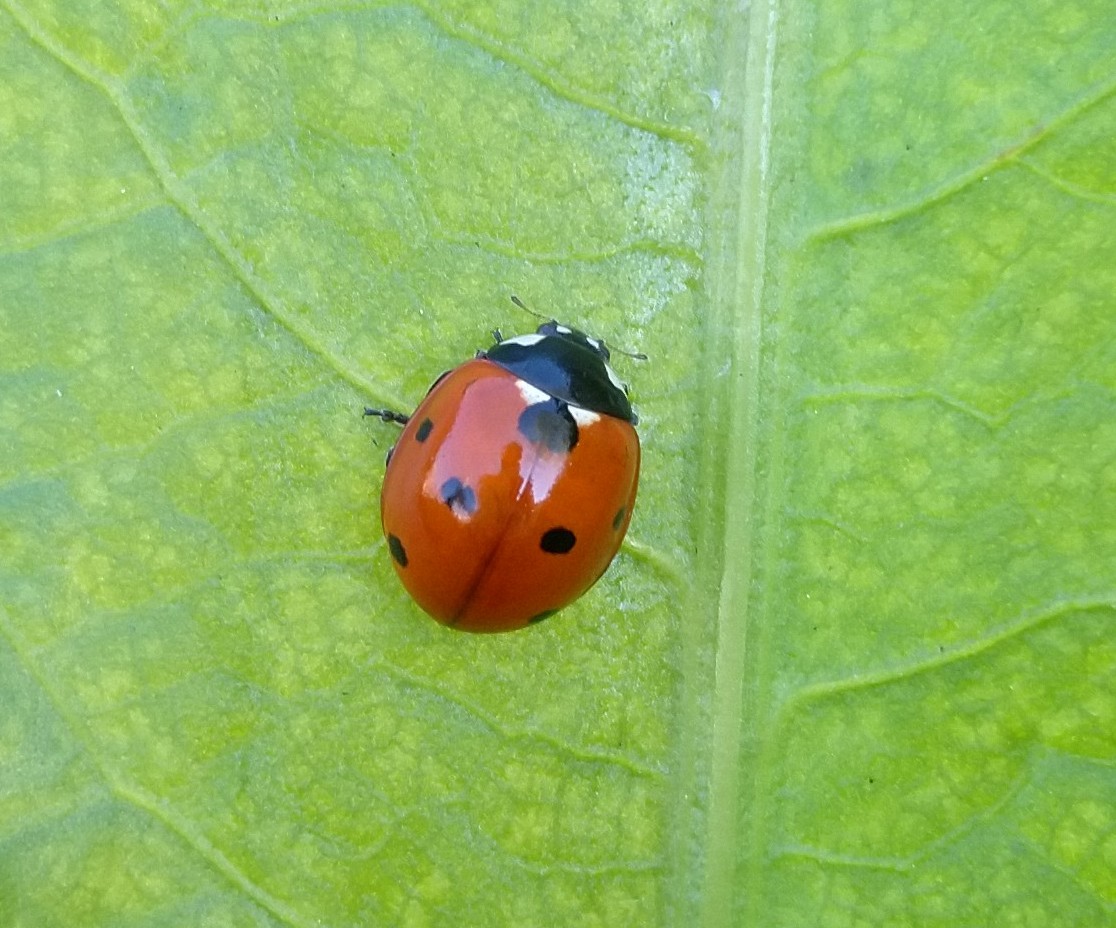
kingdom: Animalia
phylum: Arthropoda
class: Insecta
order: Coleoptera
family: Coccinellidae
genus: Coccinella
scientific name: Coccinella septempunctata
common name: Sevenspotted lady beetle
